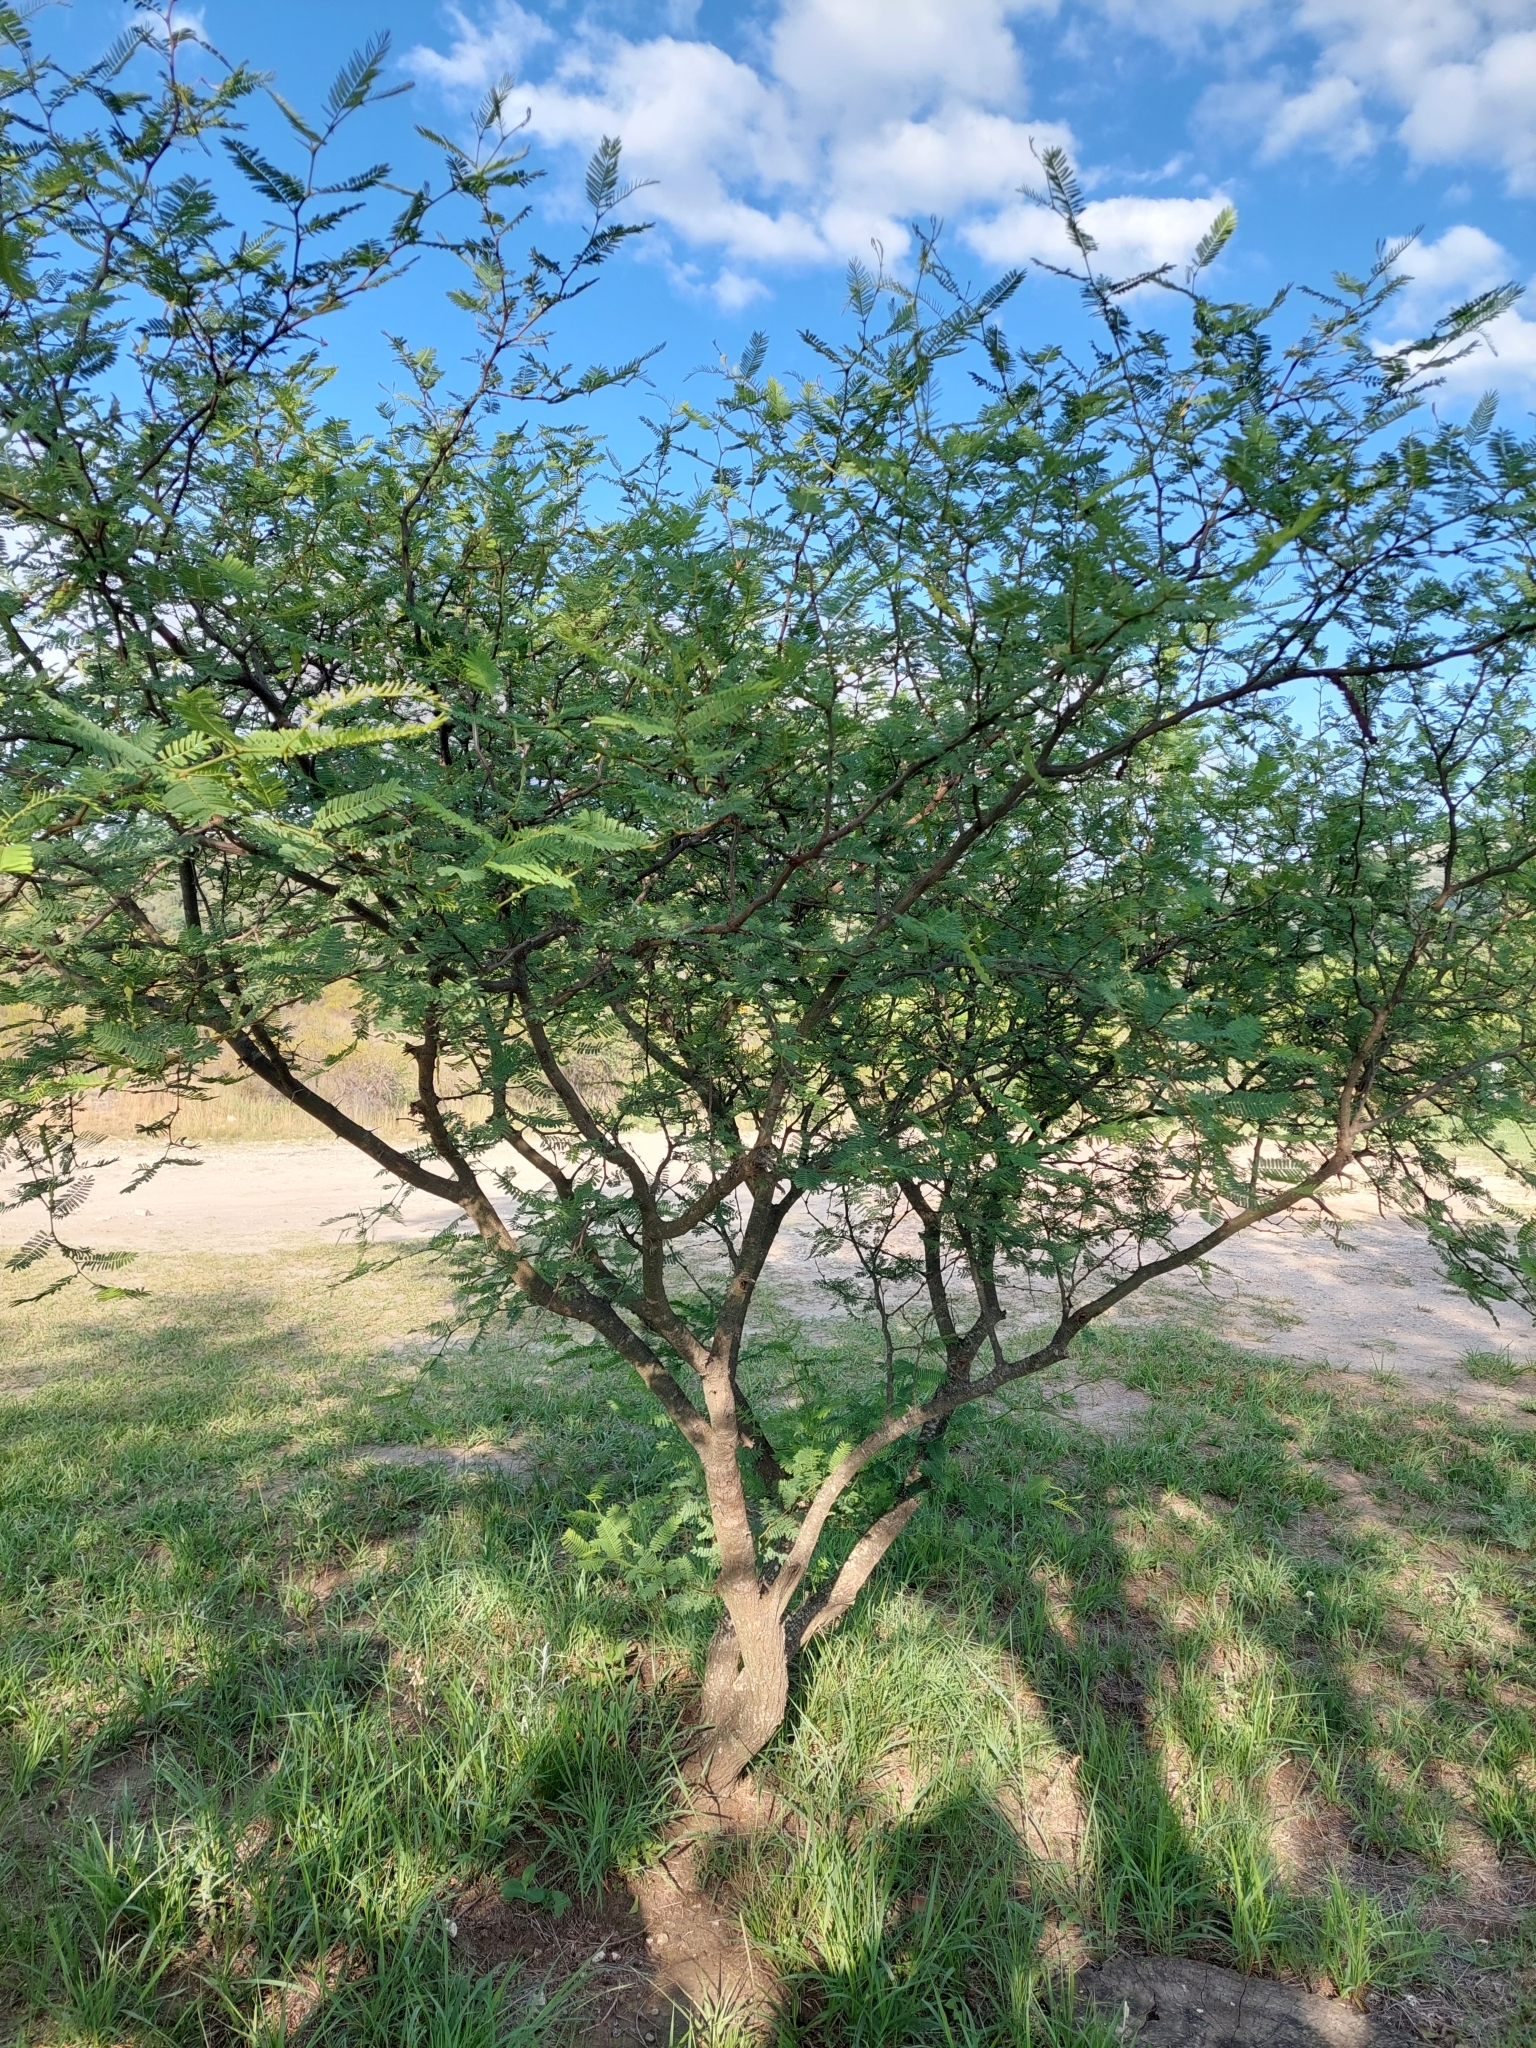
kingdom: Plantae
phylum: Tracheophyta
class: Magnoliopsida
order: Fabales
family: Fabaceae
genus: Vachellia
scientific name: Vachellia aroma
